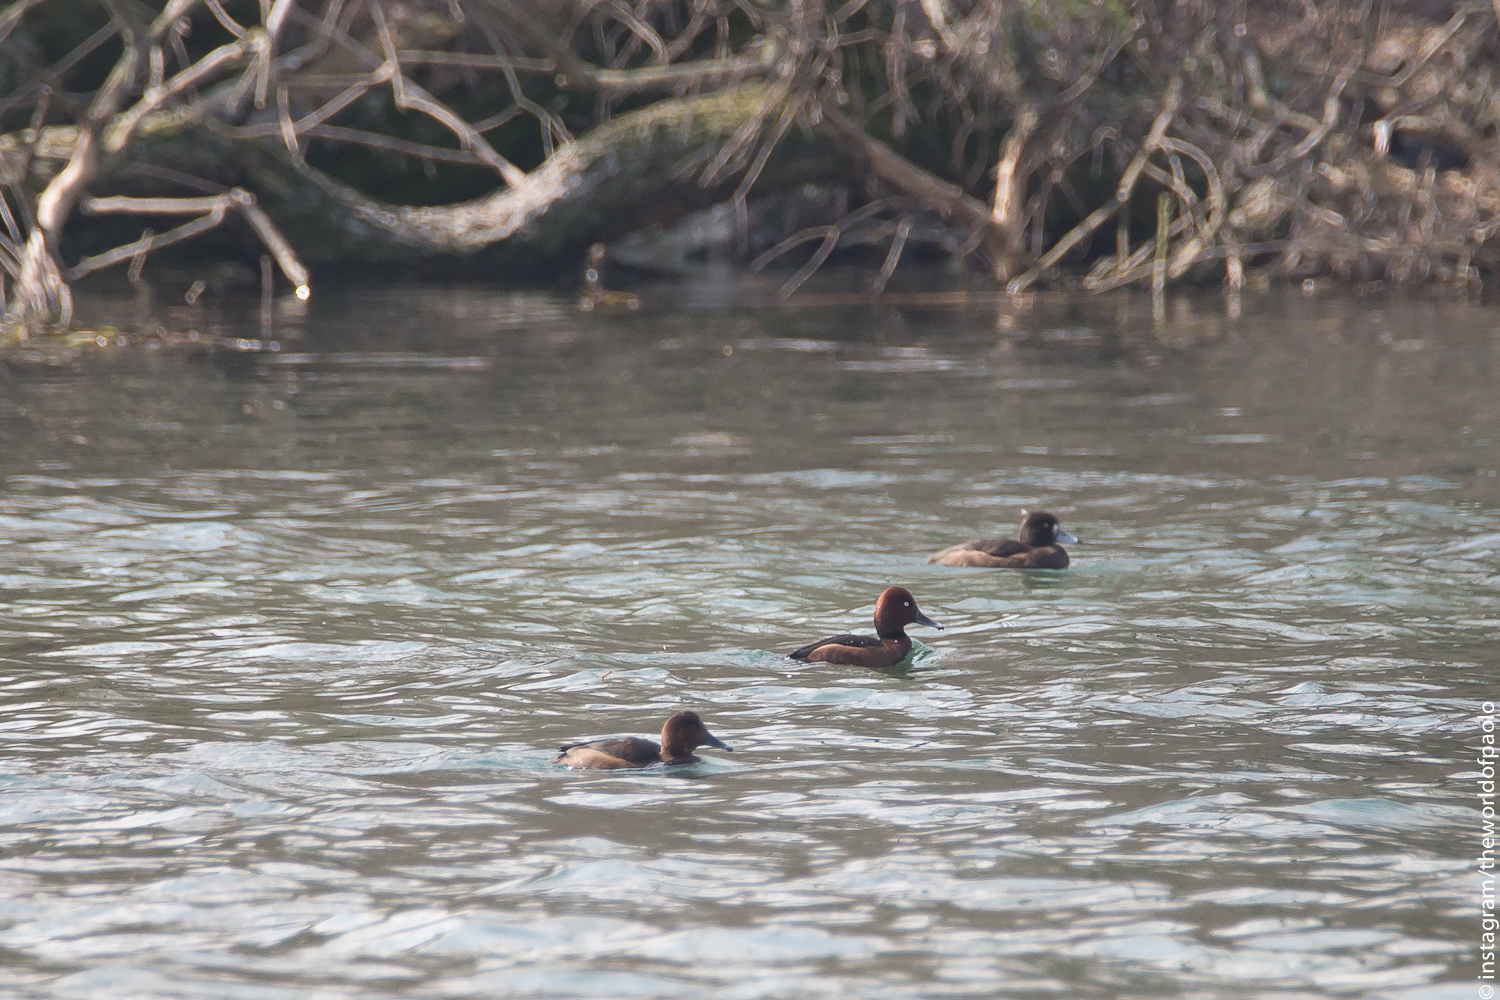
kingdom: Animalia
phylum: Chordata
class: Aves
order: Anseriformes
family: Anatidae
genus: Aythya
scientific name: Aythya nyroca
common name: Ferruginous duck
